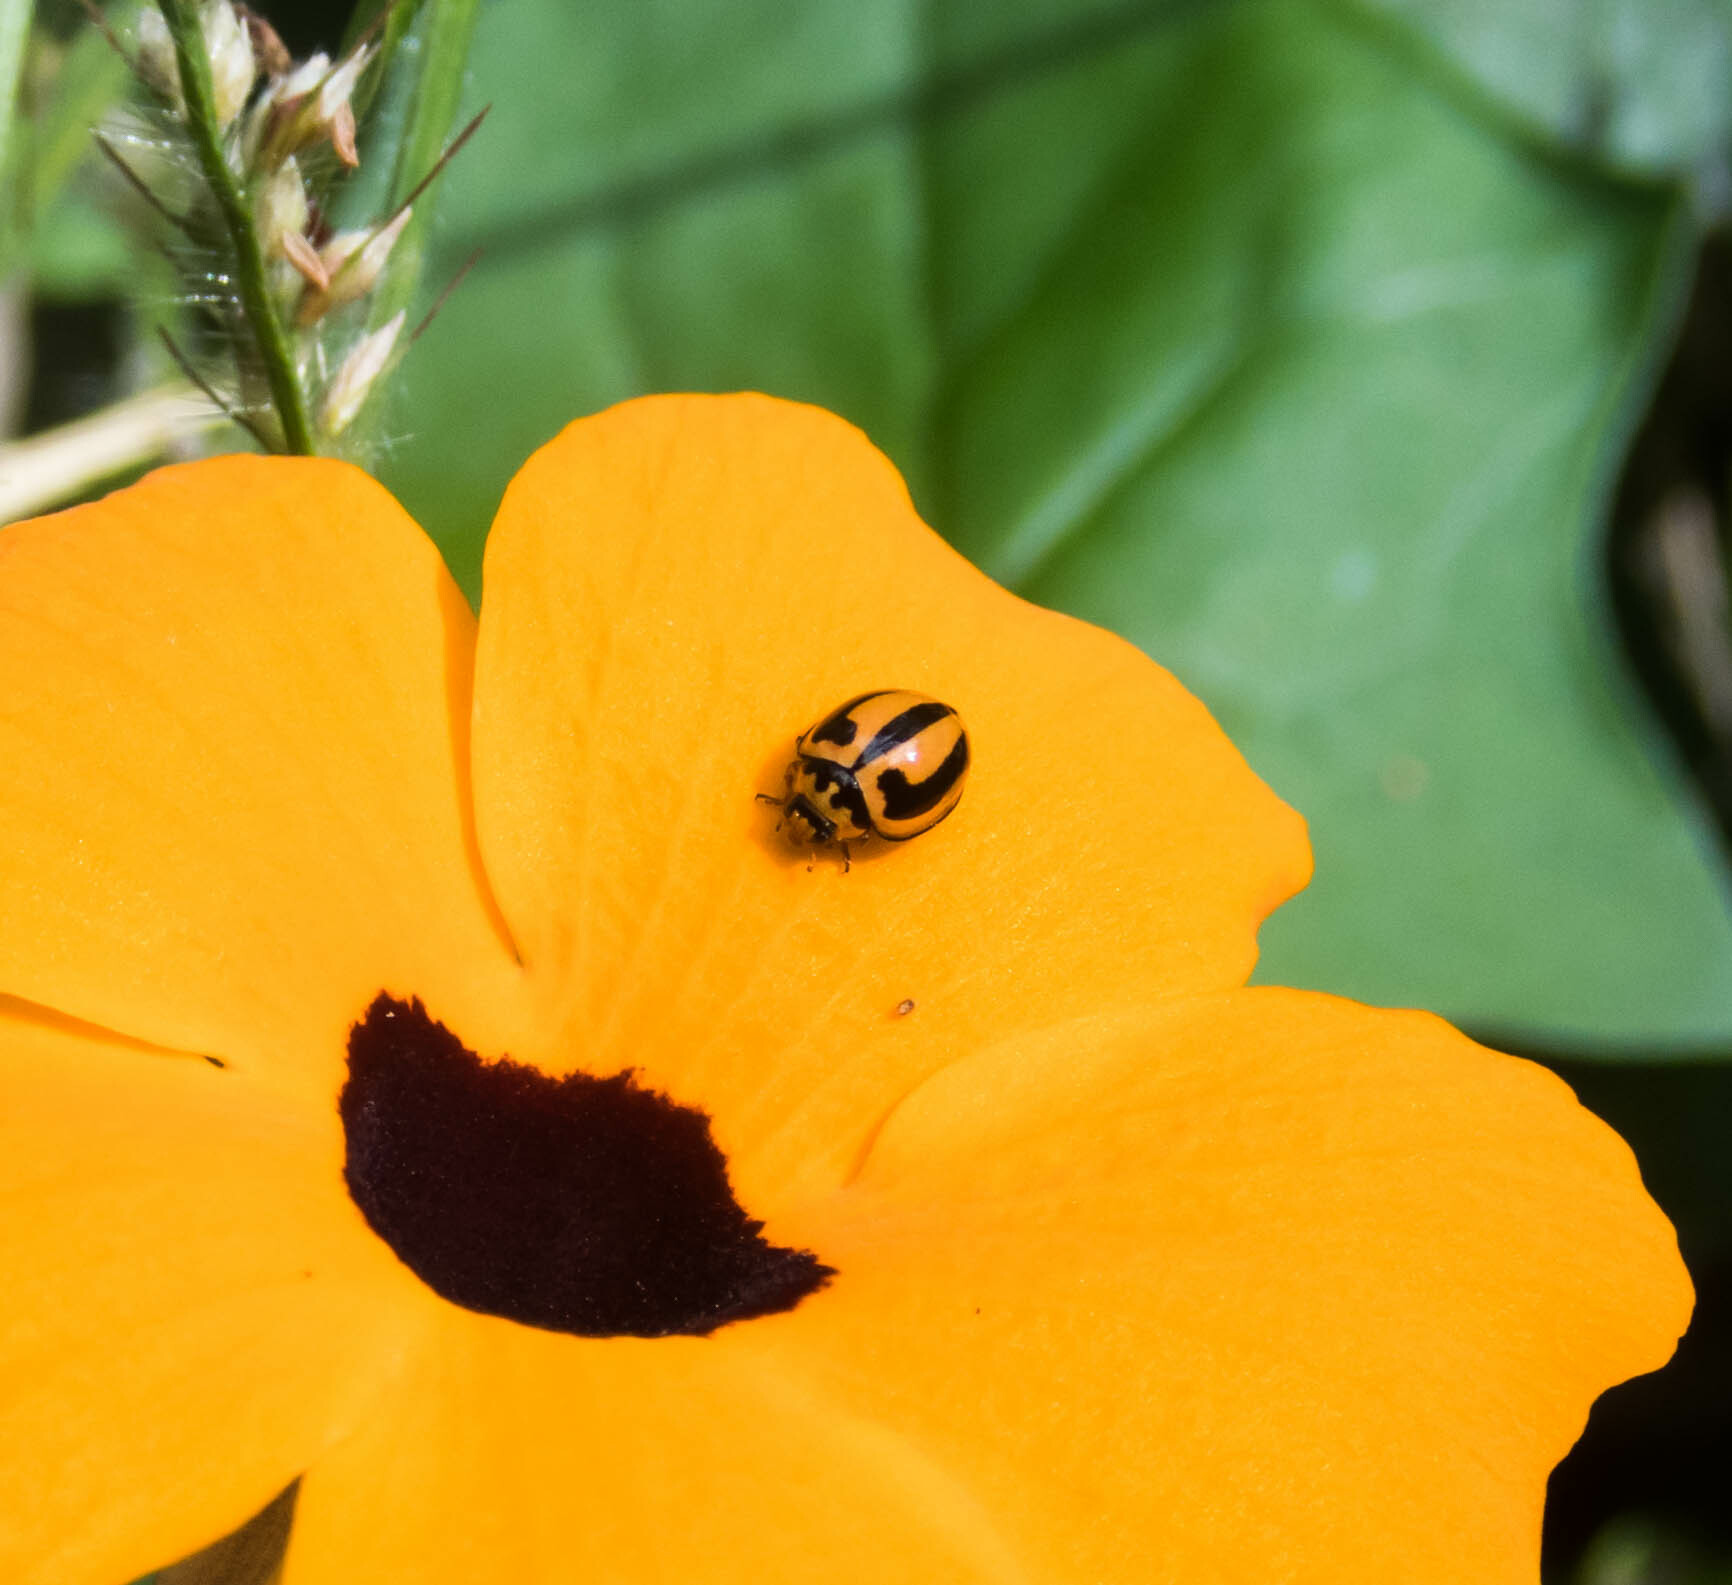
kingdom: Animalia
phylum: Arthropoda
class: Insecta
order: Coleoptera
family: Coccinellidae
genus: Micraspis
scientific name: Micraspis frenata
